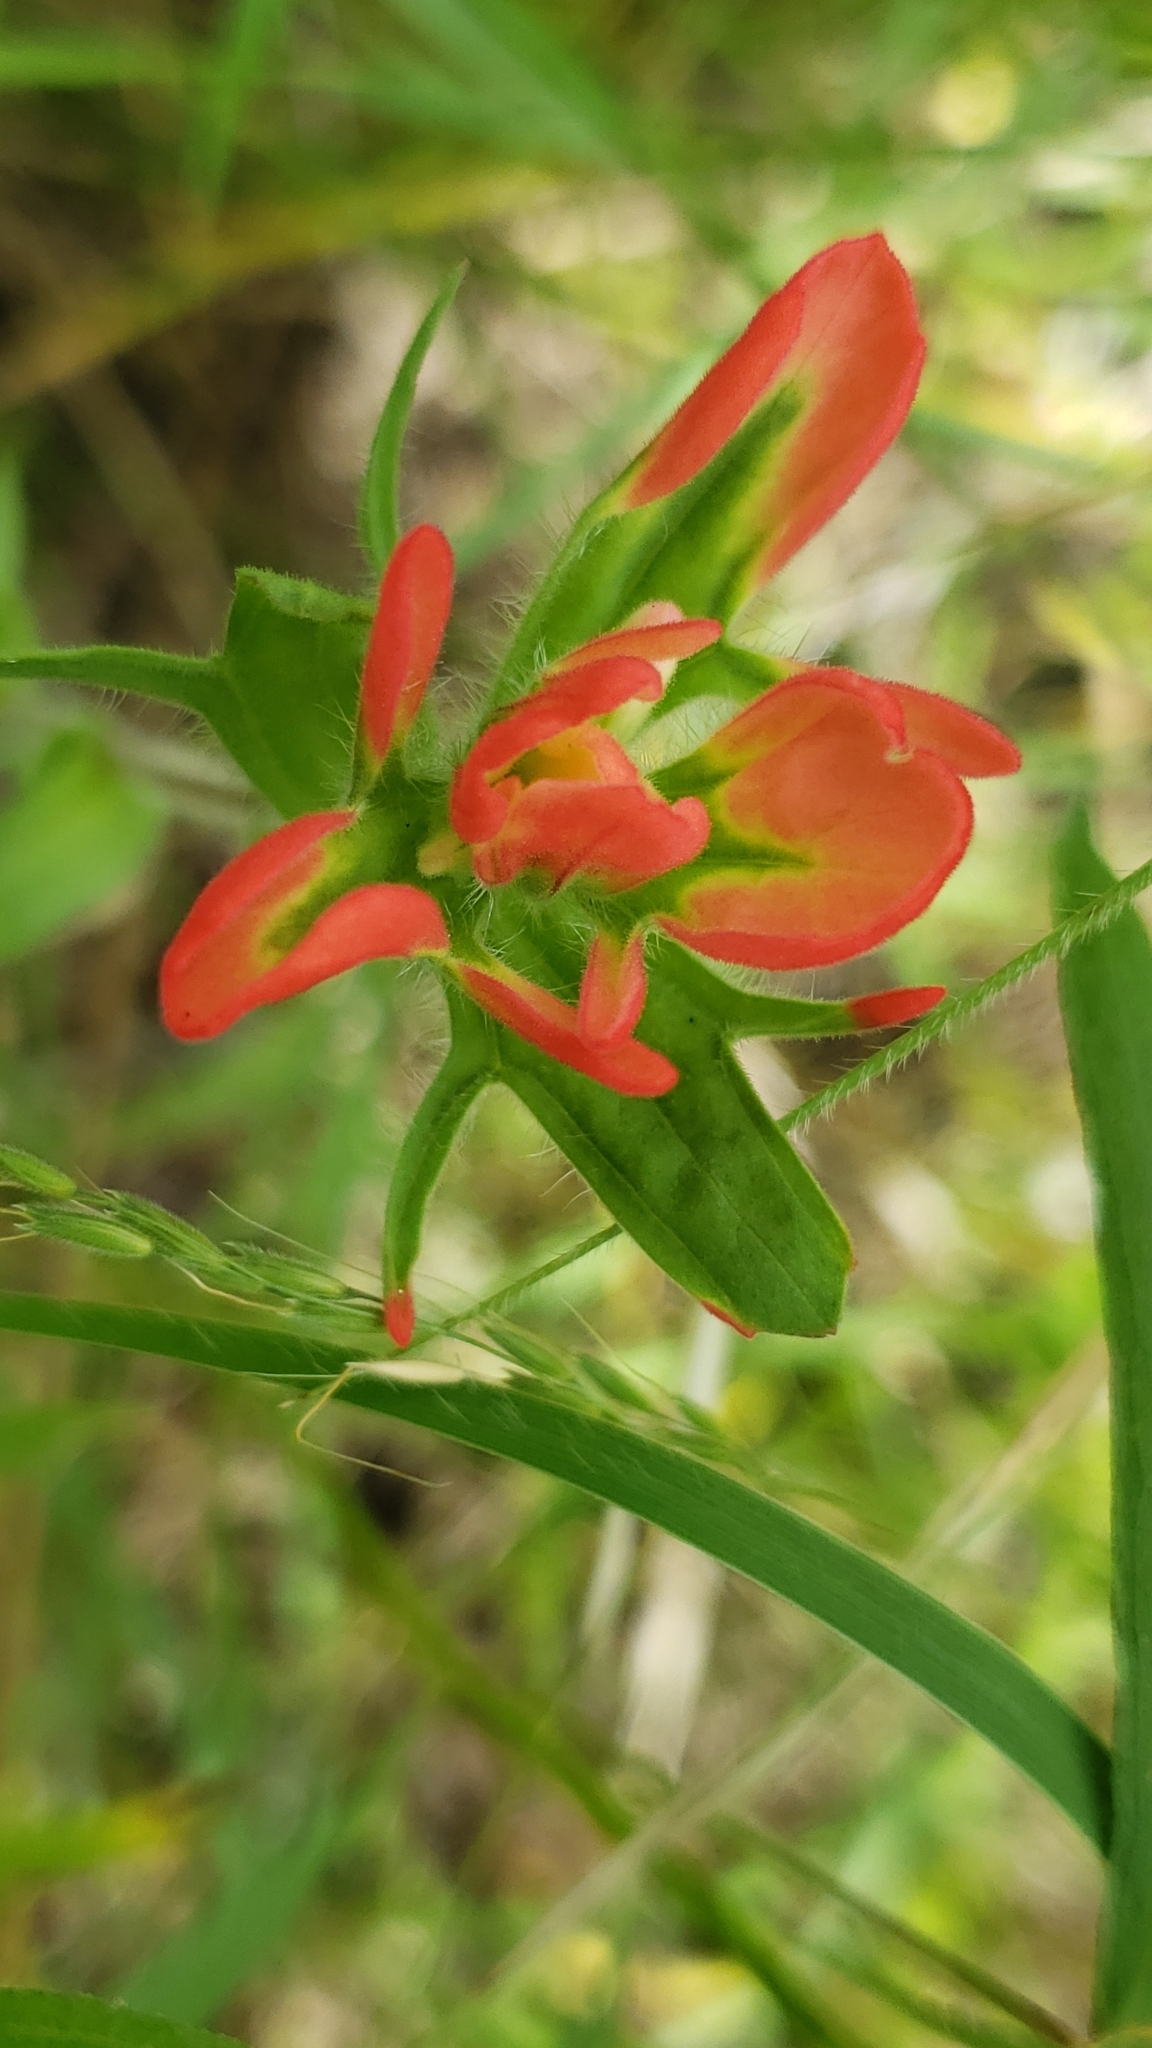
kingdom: Plantae
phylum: Tracheophyta
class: Magnoliopsida
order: Lamiales
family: Orobanchaceae
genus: Castilleja
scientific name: Castilleja indivisa
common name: Texas paintbrush
